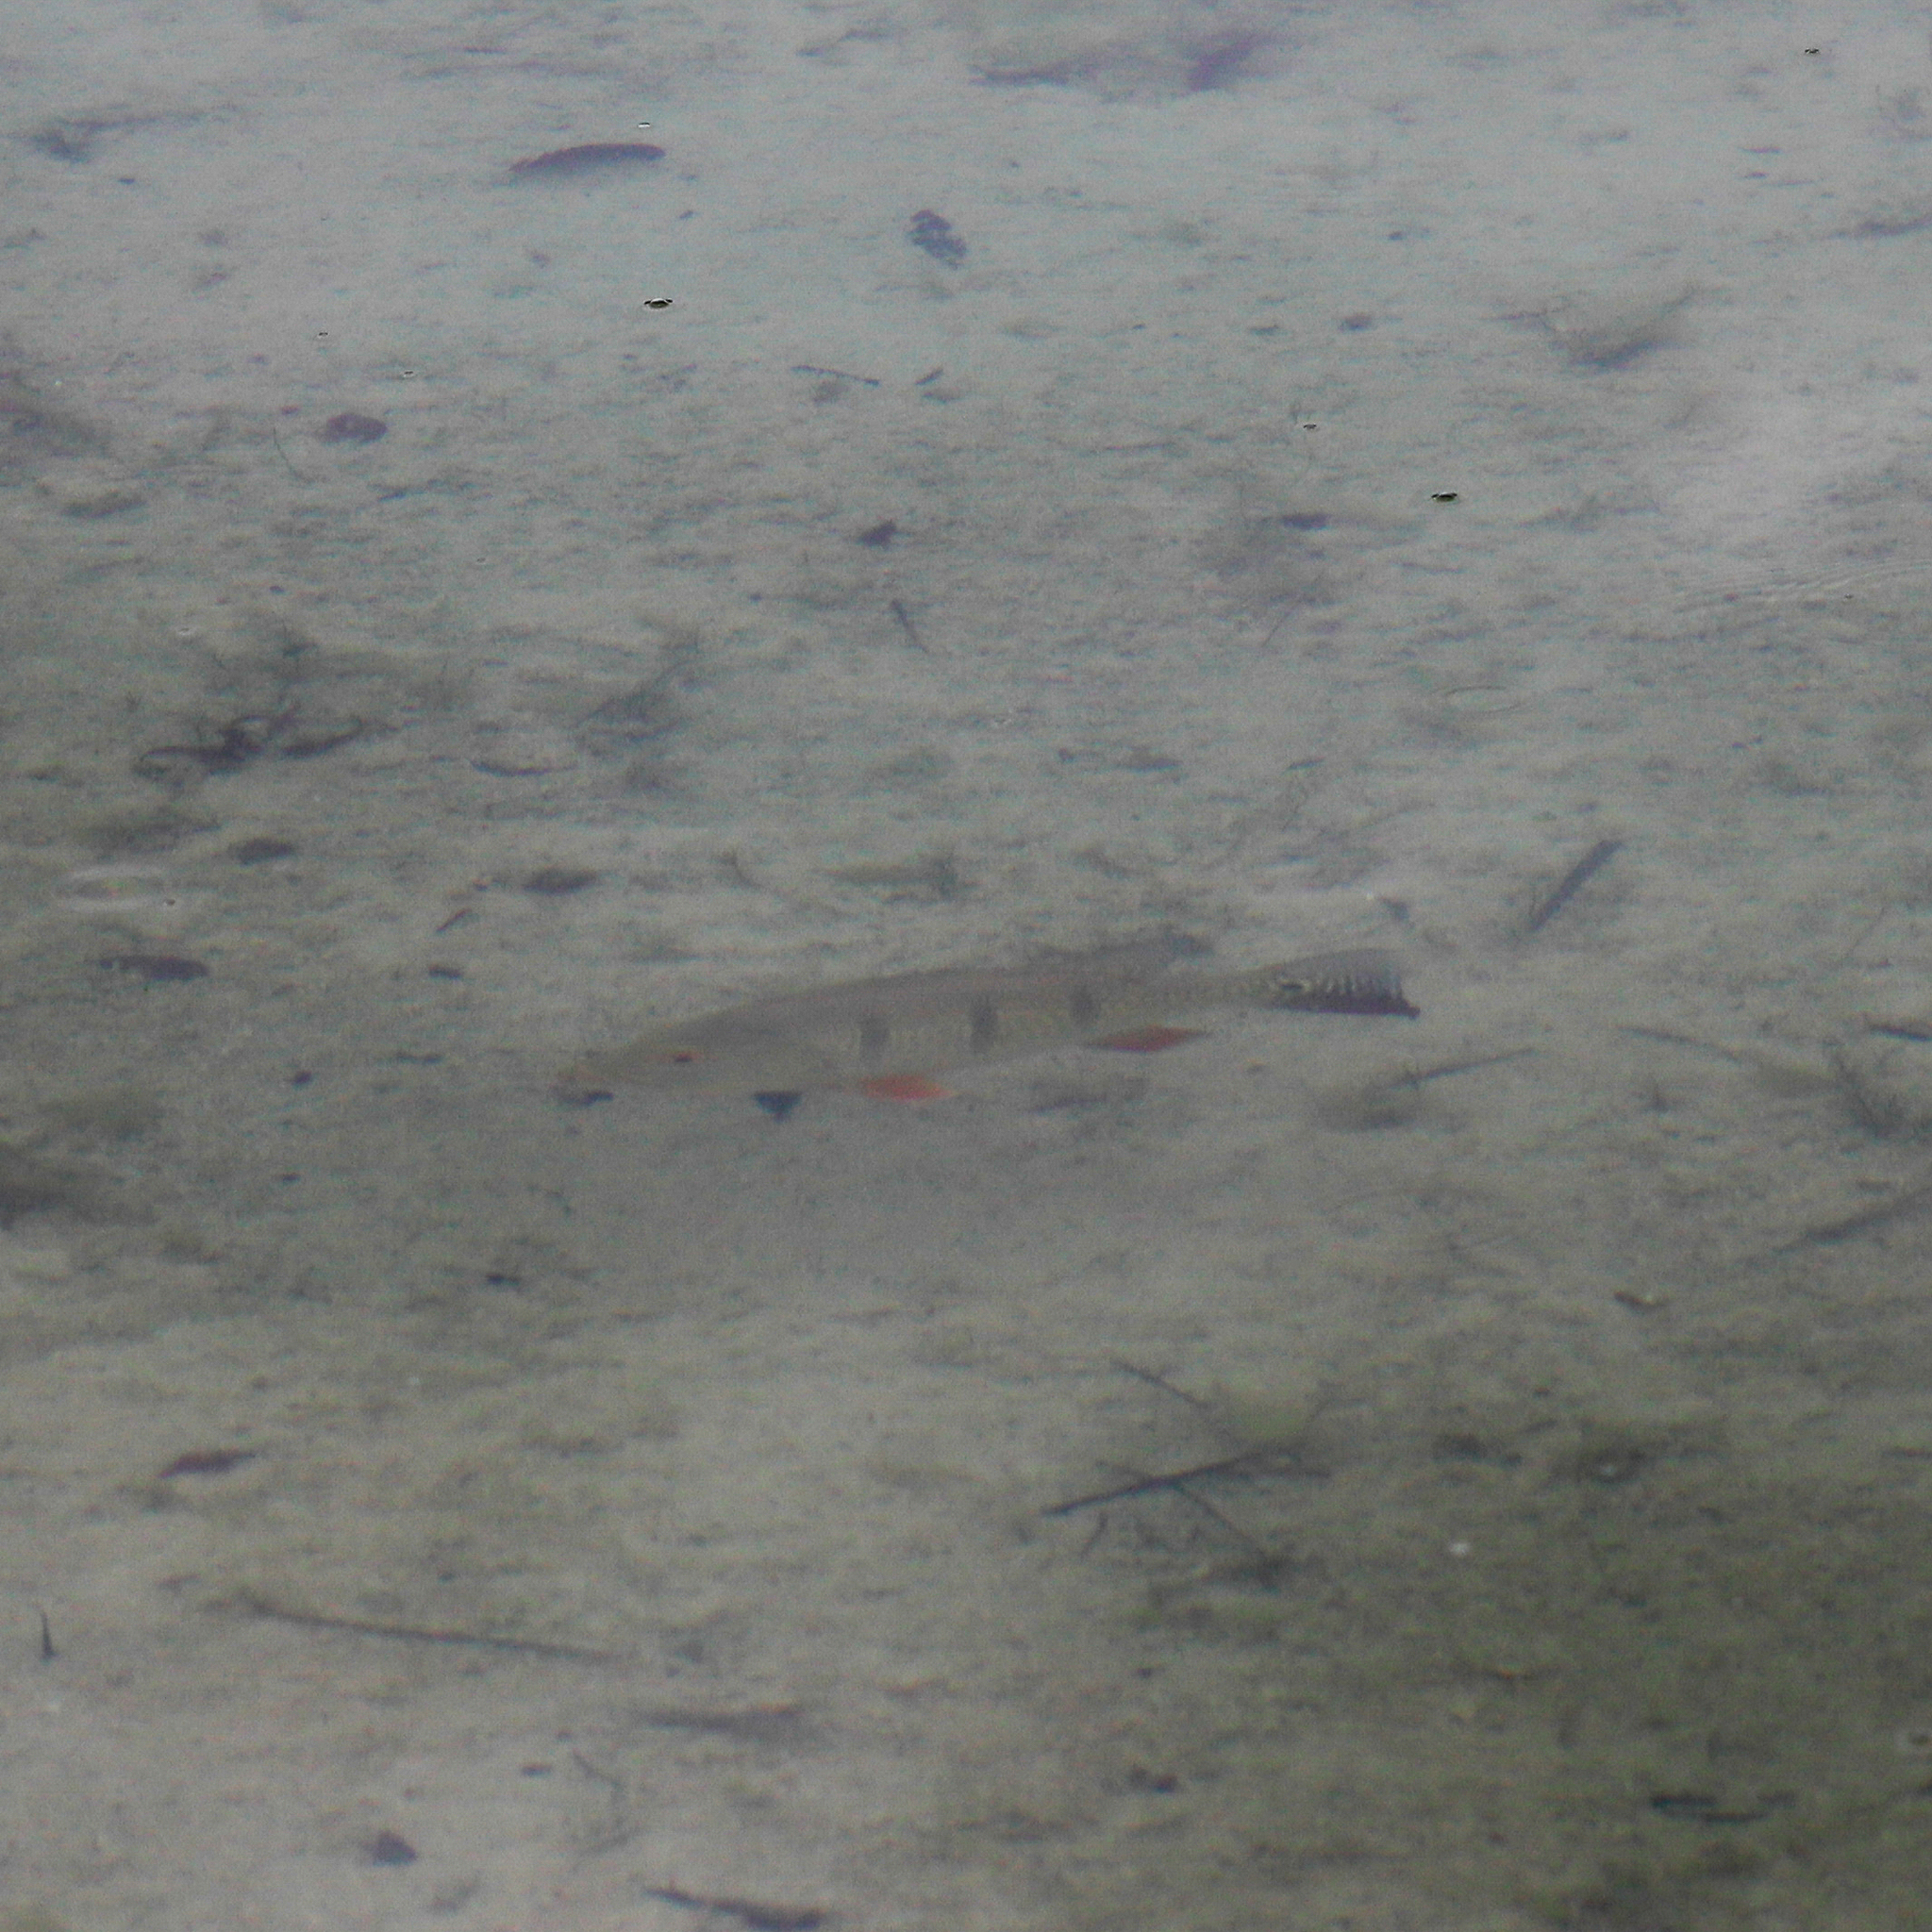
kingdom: Animalia
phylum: Chordata
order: Perciformes
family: Cichlidae
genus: Cichla
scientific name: Cichla ocellaris
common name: Peacock cichlid
